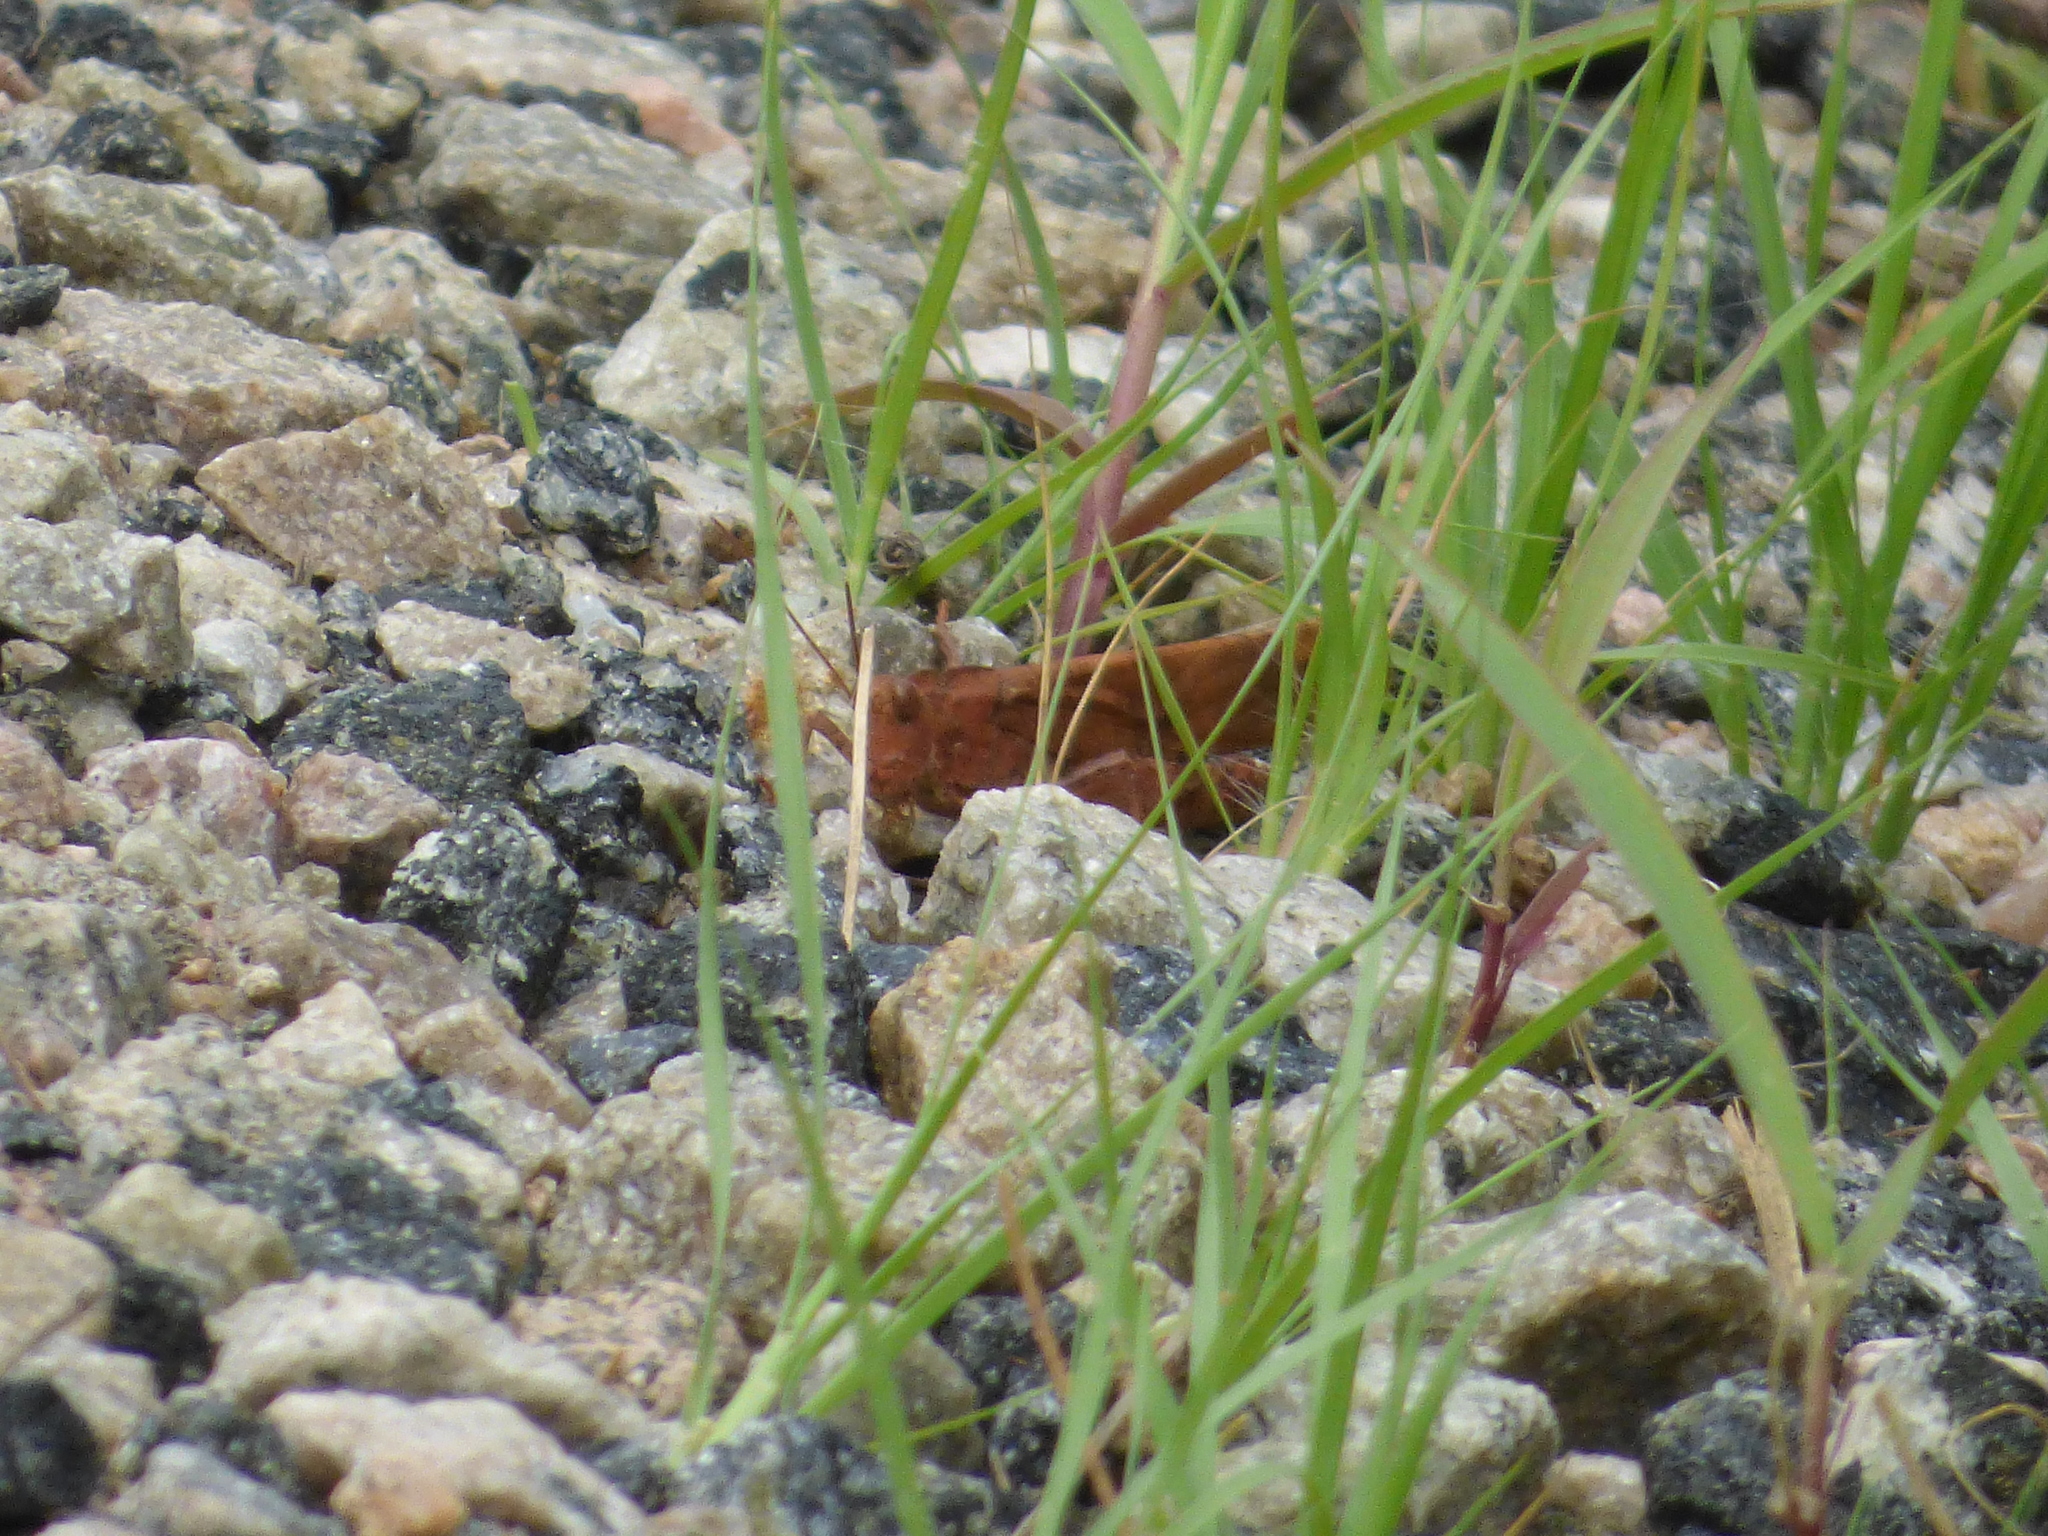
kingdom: Animalia
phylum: Arthropoda
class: Insecta
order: Orthoptera
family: Acrididae
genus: Dissosteira
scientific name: Dissosteira carolina
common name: Carolina grasshopper
